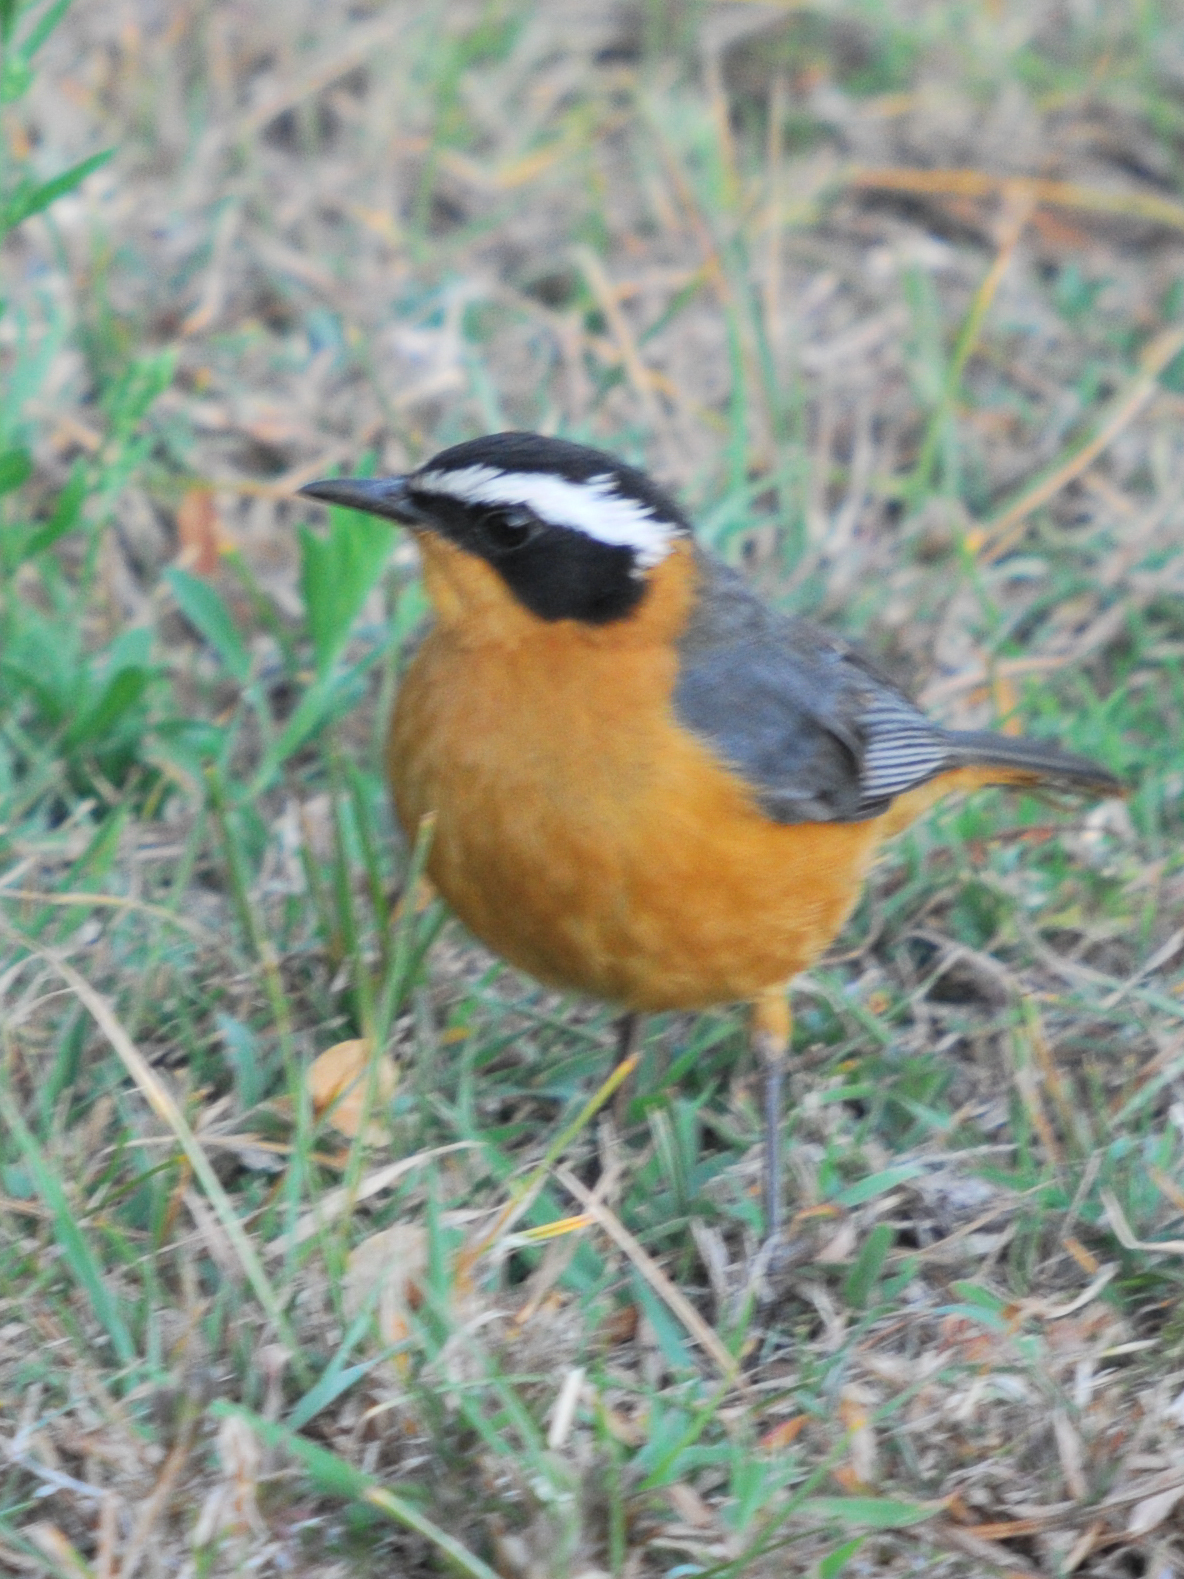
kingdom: Animalia
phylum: Chordata
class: Aves
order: Passeriformes
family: Muscicapidae
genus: Cossypha
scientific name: Cossypha heuglini
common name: White-browed robin-chat
